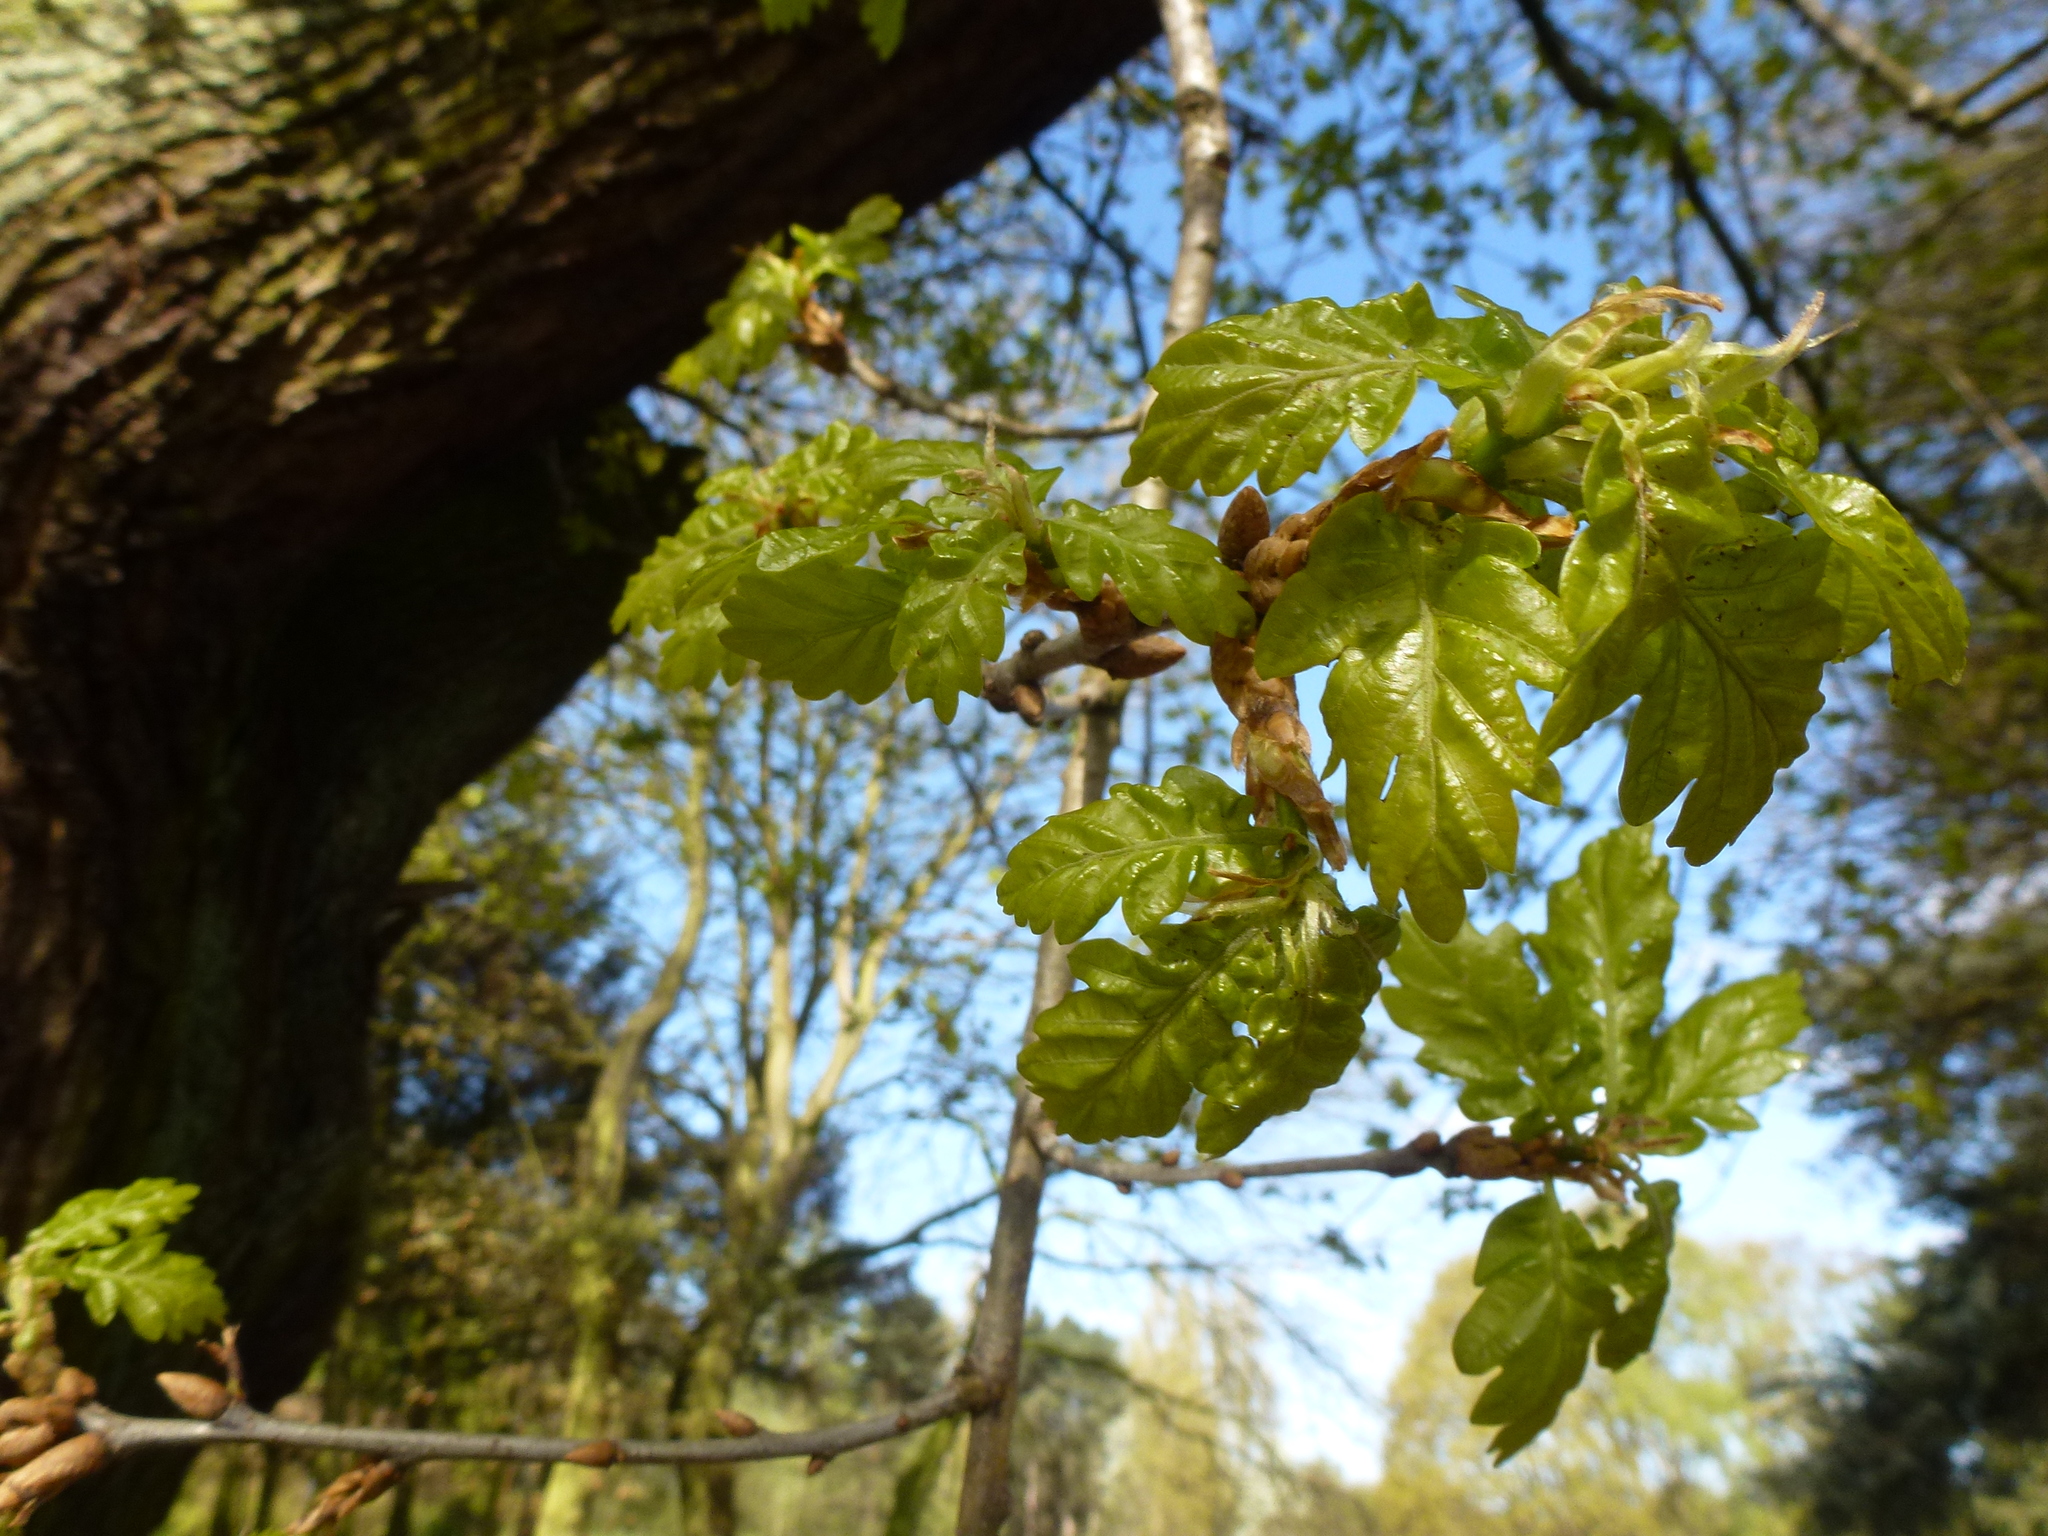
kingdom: Plantae
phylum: Tracheophyta
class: Magnoliopsida
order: Fagales
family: Fagaceae
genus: Quercus
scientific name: Quercus robur
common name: Pedunculate oak
